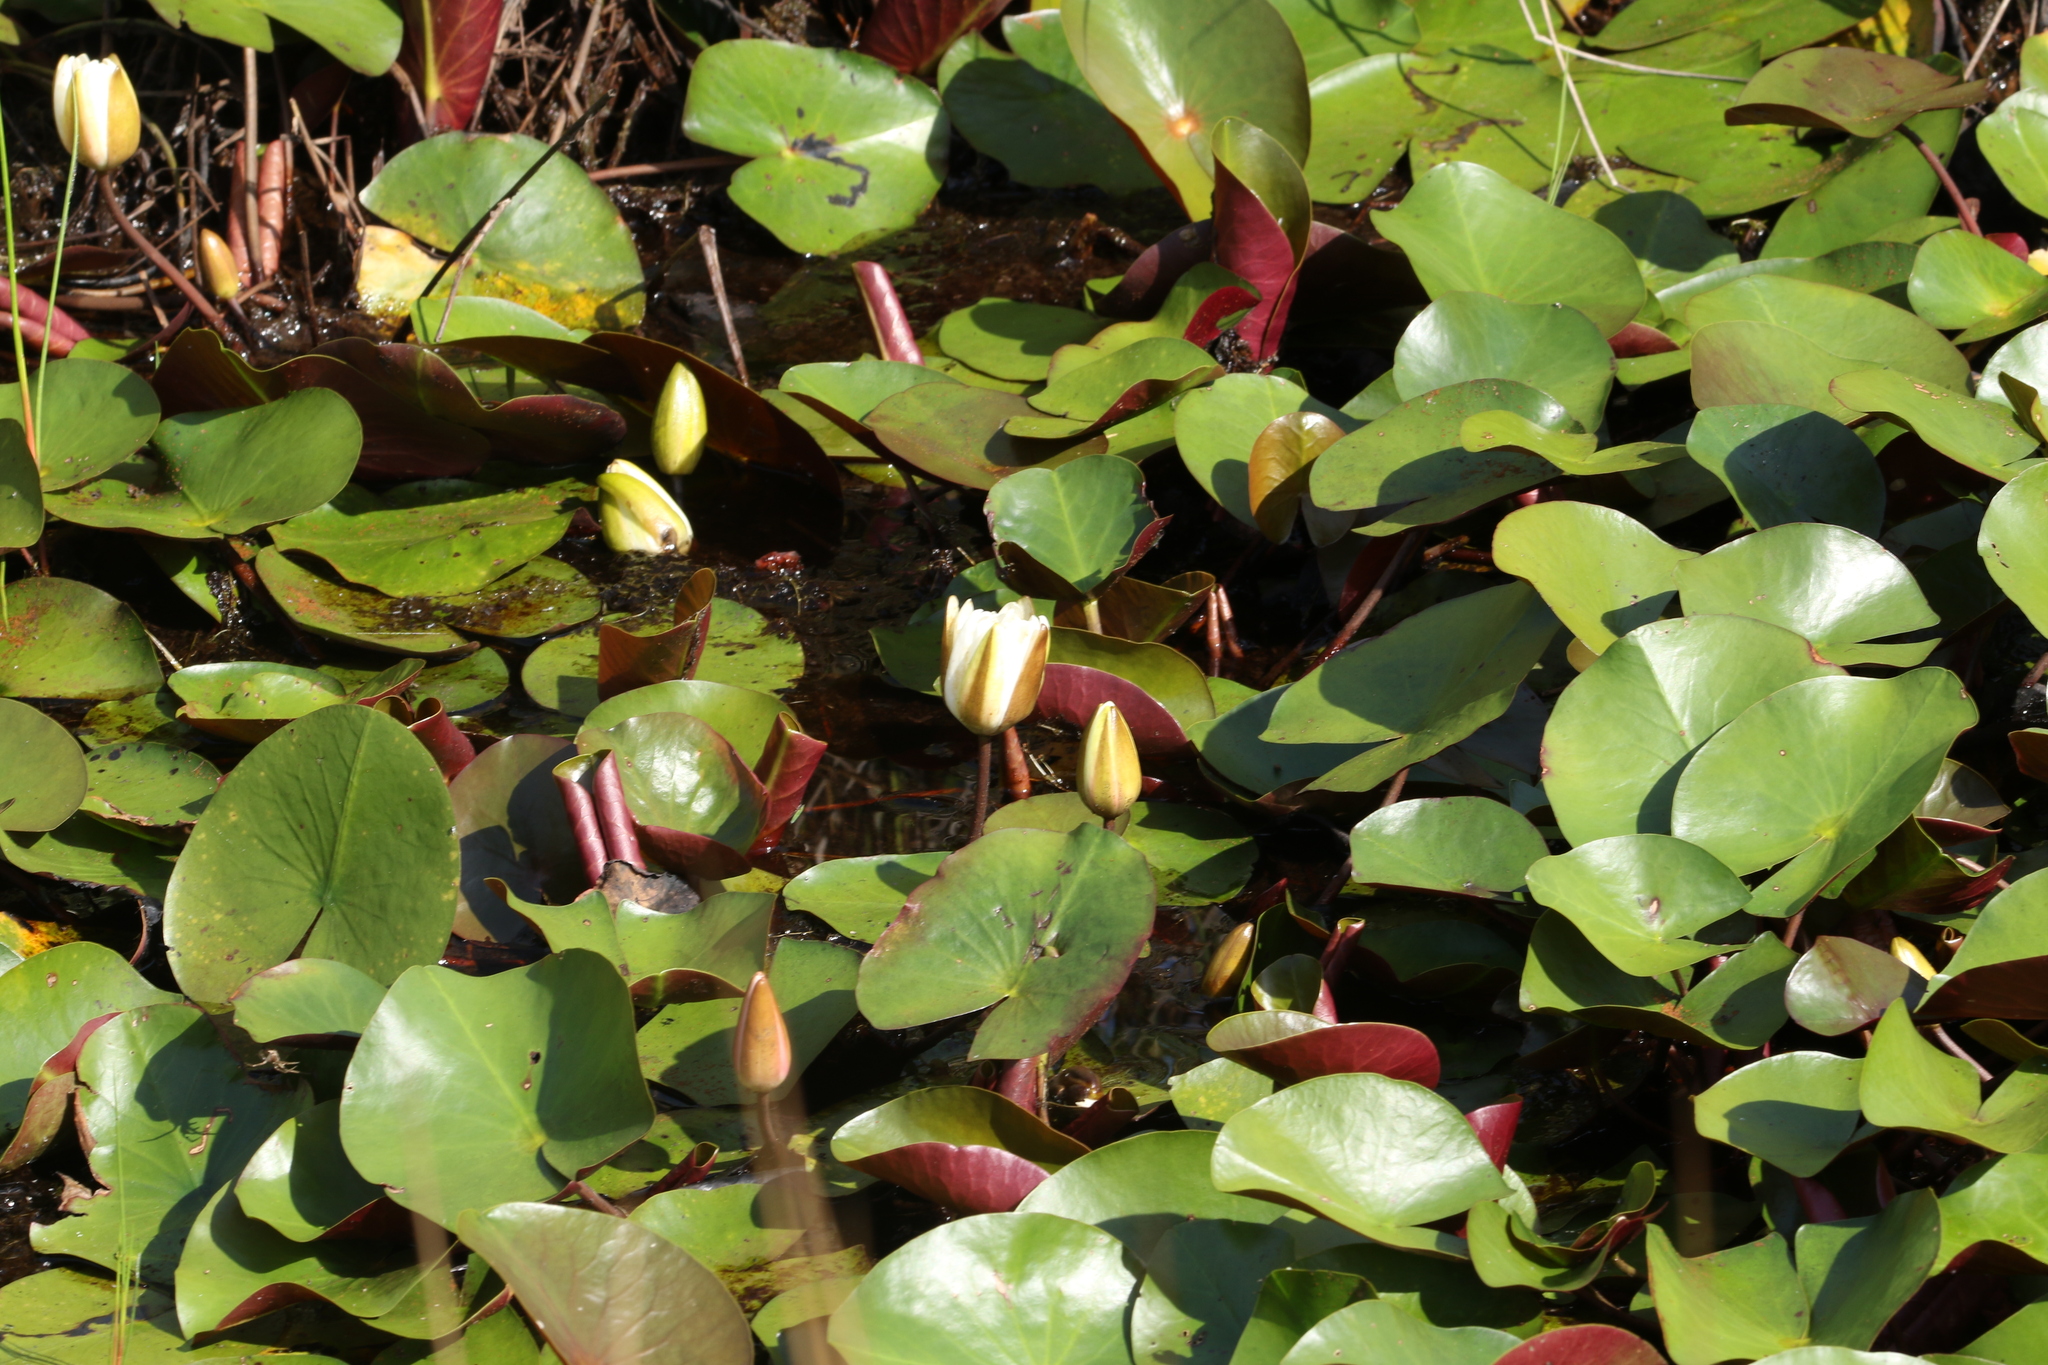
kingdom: Plantae
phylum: Tracheophyta
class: Magnoliopsida
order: Nymphaeales
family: Nymphaeaceae
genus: Nymphaea
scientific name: Nymphaea odorata
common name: Fragrant water-lily
